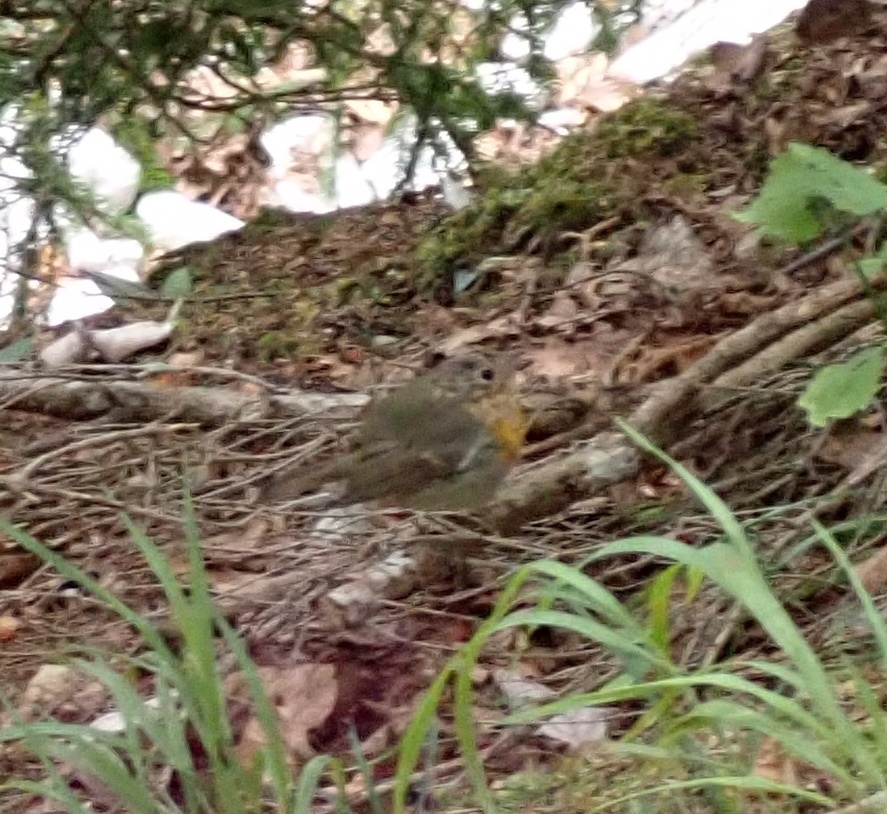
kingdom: Animalia
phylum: Chordata
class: Aves
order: Passeriformes
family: Muscicapidae
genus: Erithacus
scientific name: Erithacus rubecula
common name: European robin
